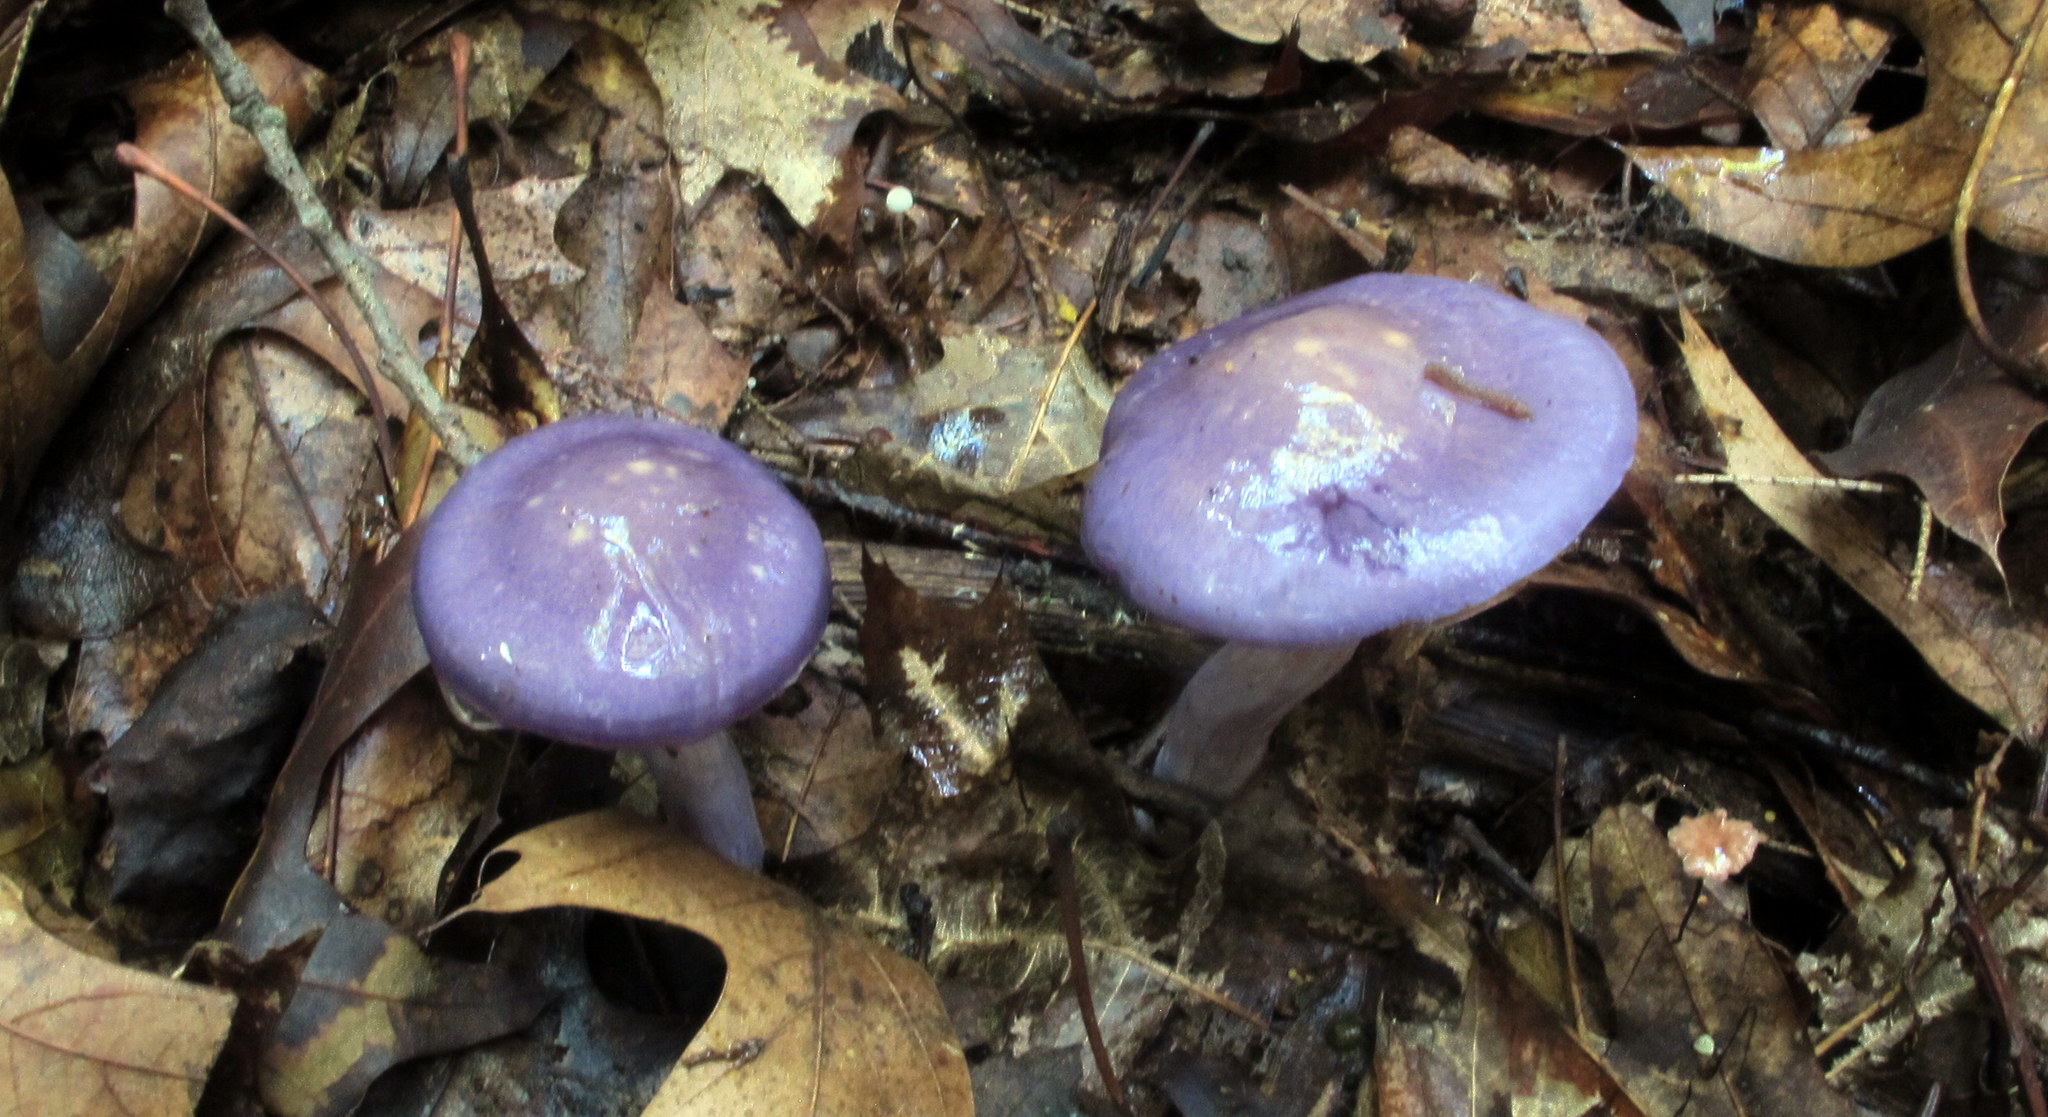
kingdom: Fungi
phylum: Basidiomycota
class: Agaricomycetes
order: Agaricales
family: Cortinariaceae
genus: Cortinarius
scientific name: Cortinarius iodes
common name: Viscid violet cort
